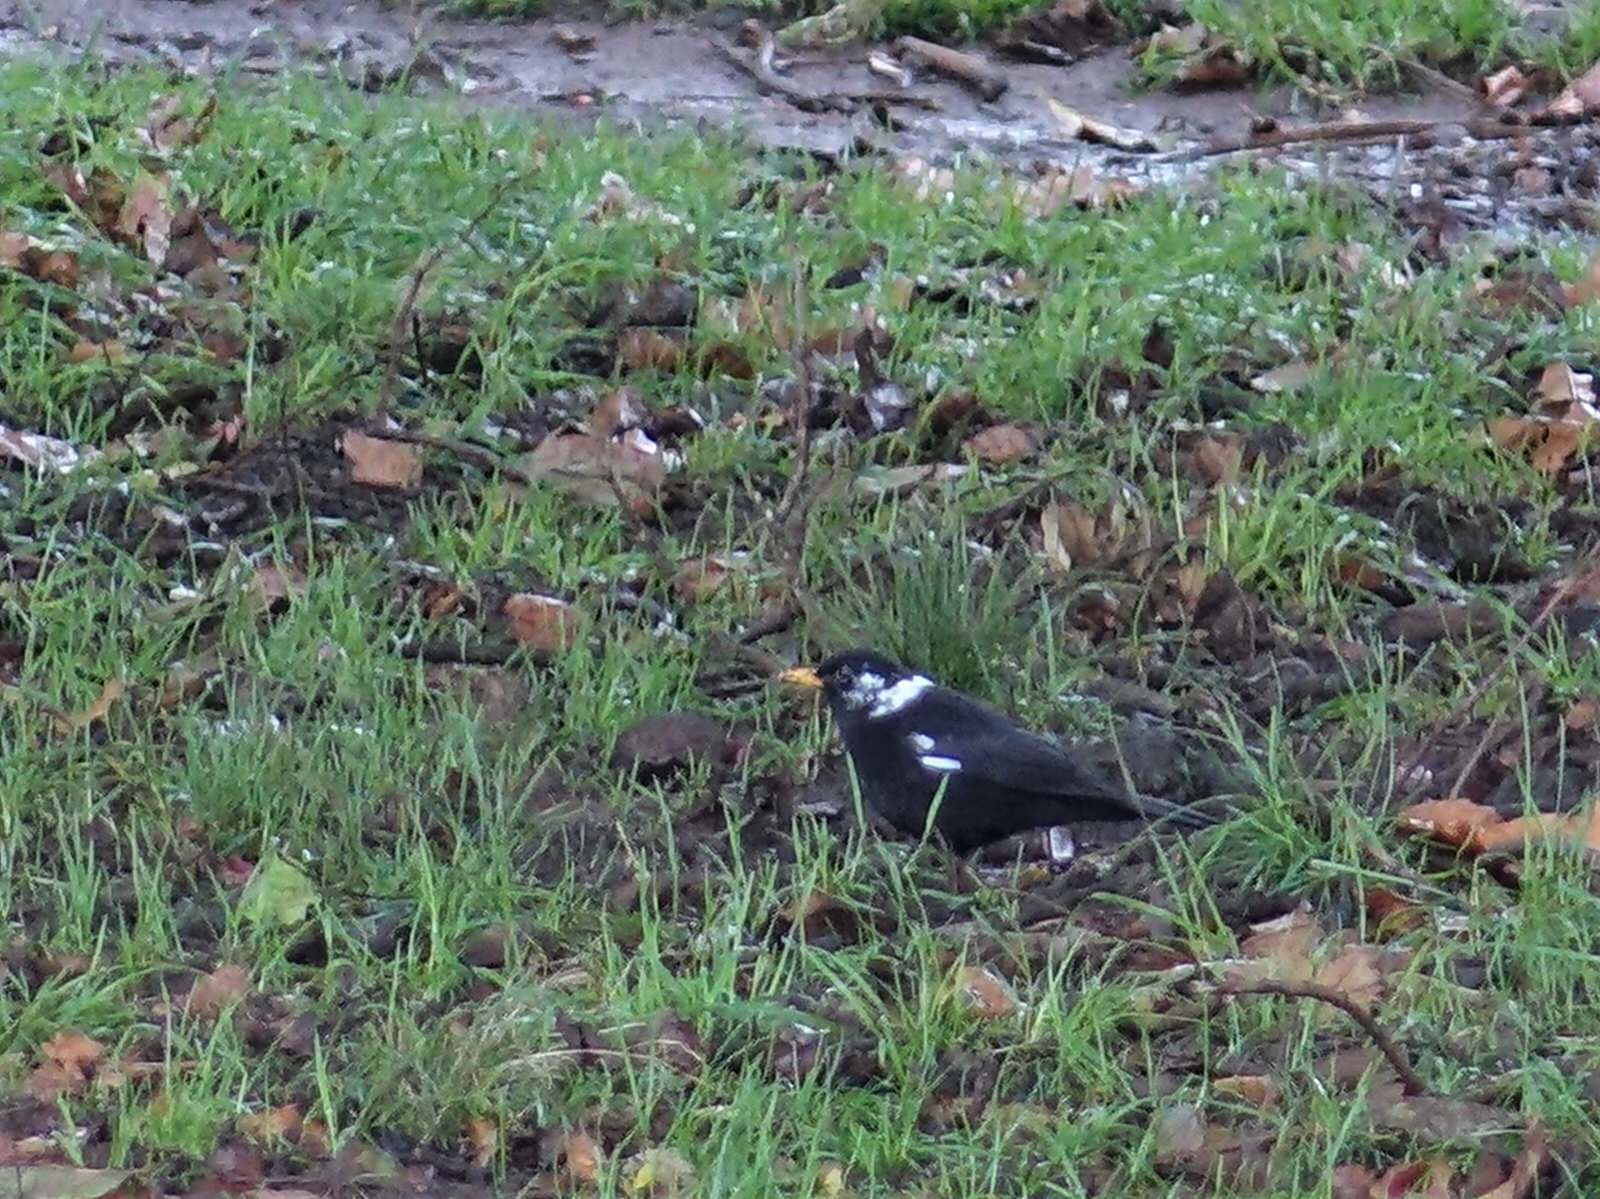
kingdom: Animalia
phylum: Chordata
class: Aves
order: Passeriformes
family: Turdidae
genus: Turdus
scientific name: Turdus merula
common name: Common blackbird
